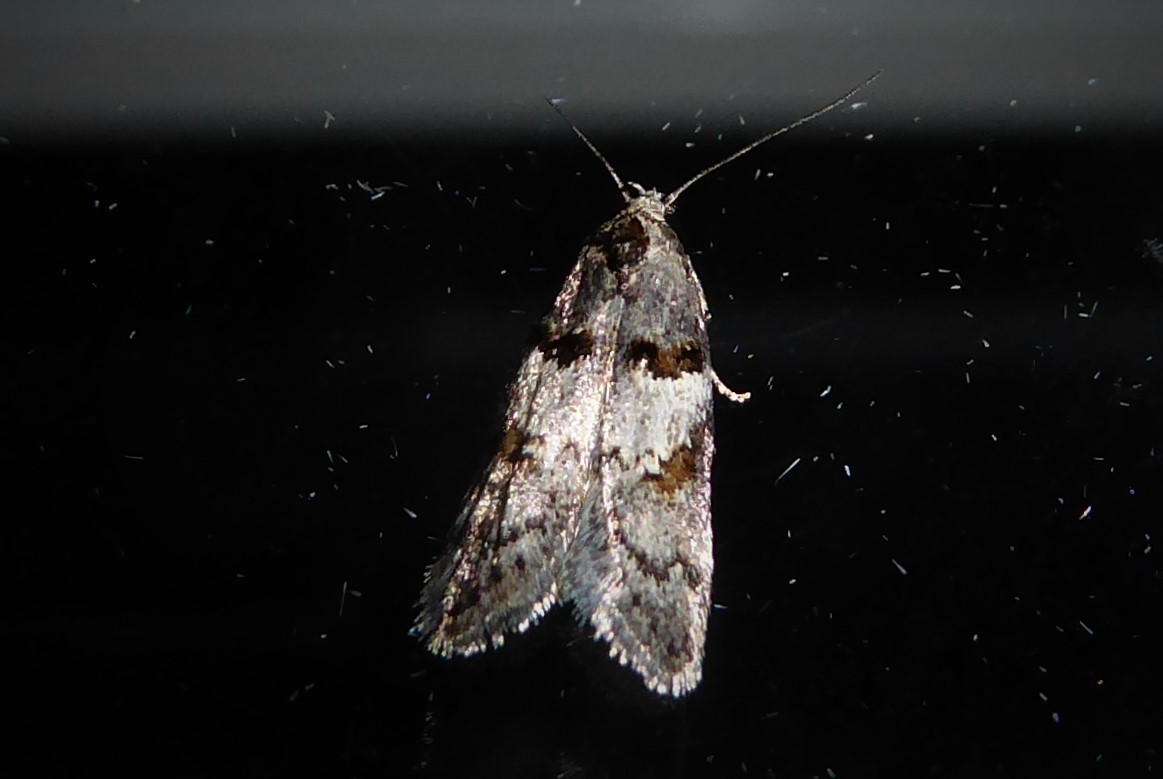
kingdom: Animalia
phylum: Arthropoda
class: Insecta
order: Lepidoptera
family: Oecophoridae
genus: Trachypepla
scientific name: Trachypepla contritella
